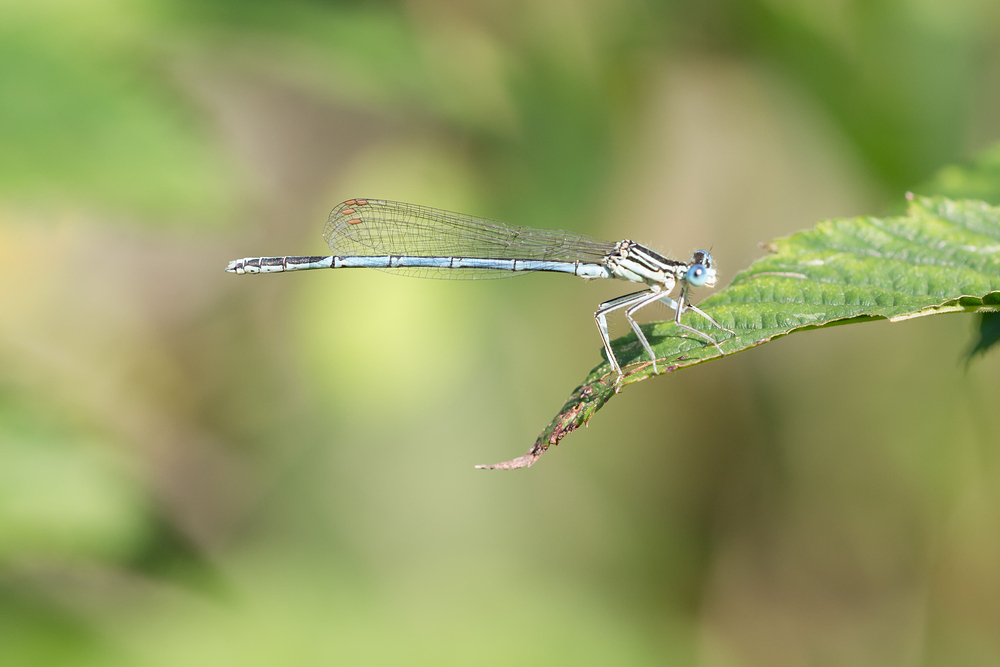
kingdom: Animalia
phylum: Arthropoda
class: Insecta
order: Odonata
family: Platycnemididae
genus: Platycnemis
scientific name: Platycnemis pennipes
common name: White-legged damselfly
